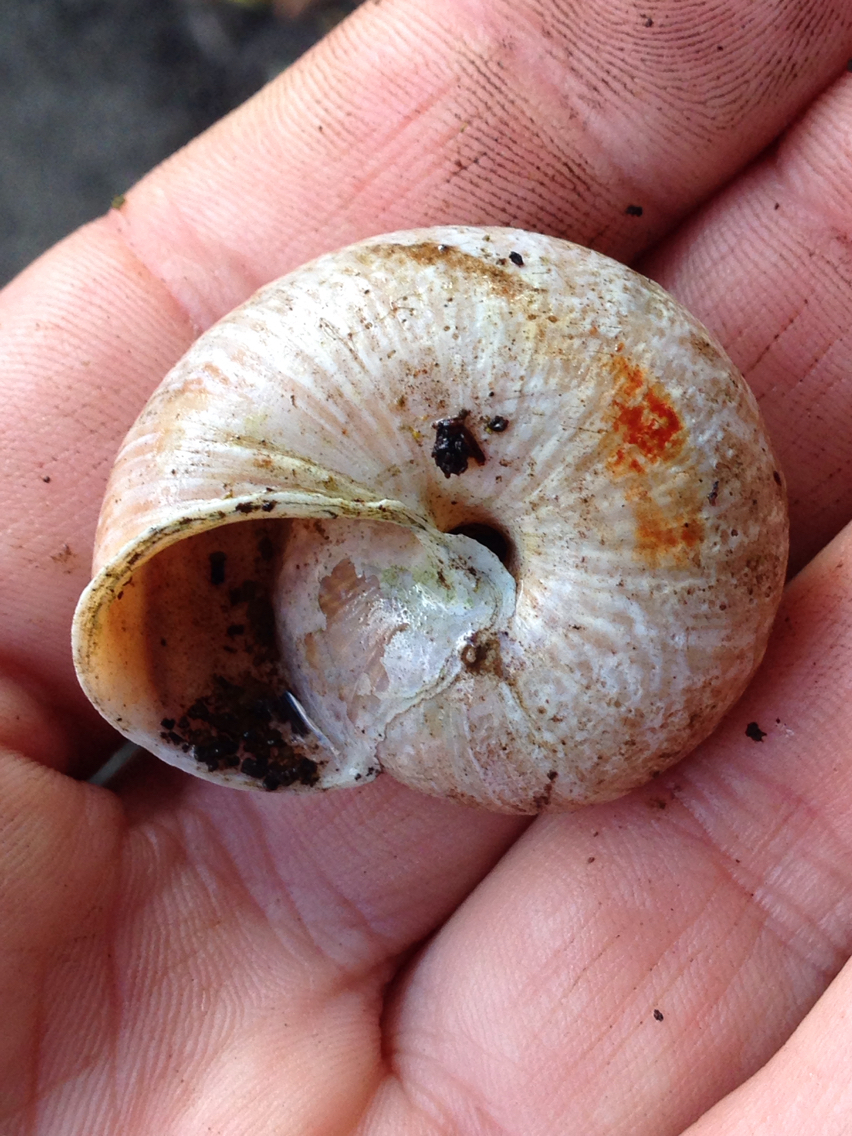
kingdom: Animalia
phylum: Mollusca
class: Gastropoda
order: Stylommatophora
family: Xanthonychidae
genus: Helminthoglypta
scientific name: Helminthoglypta arrosa
